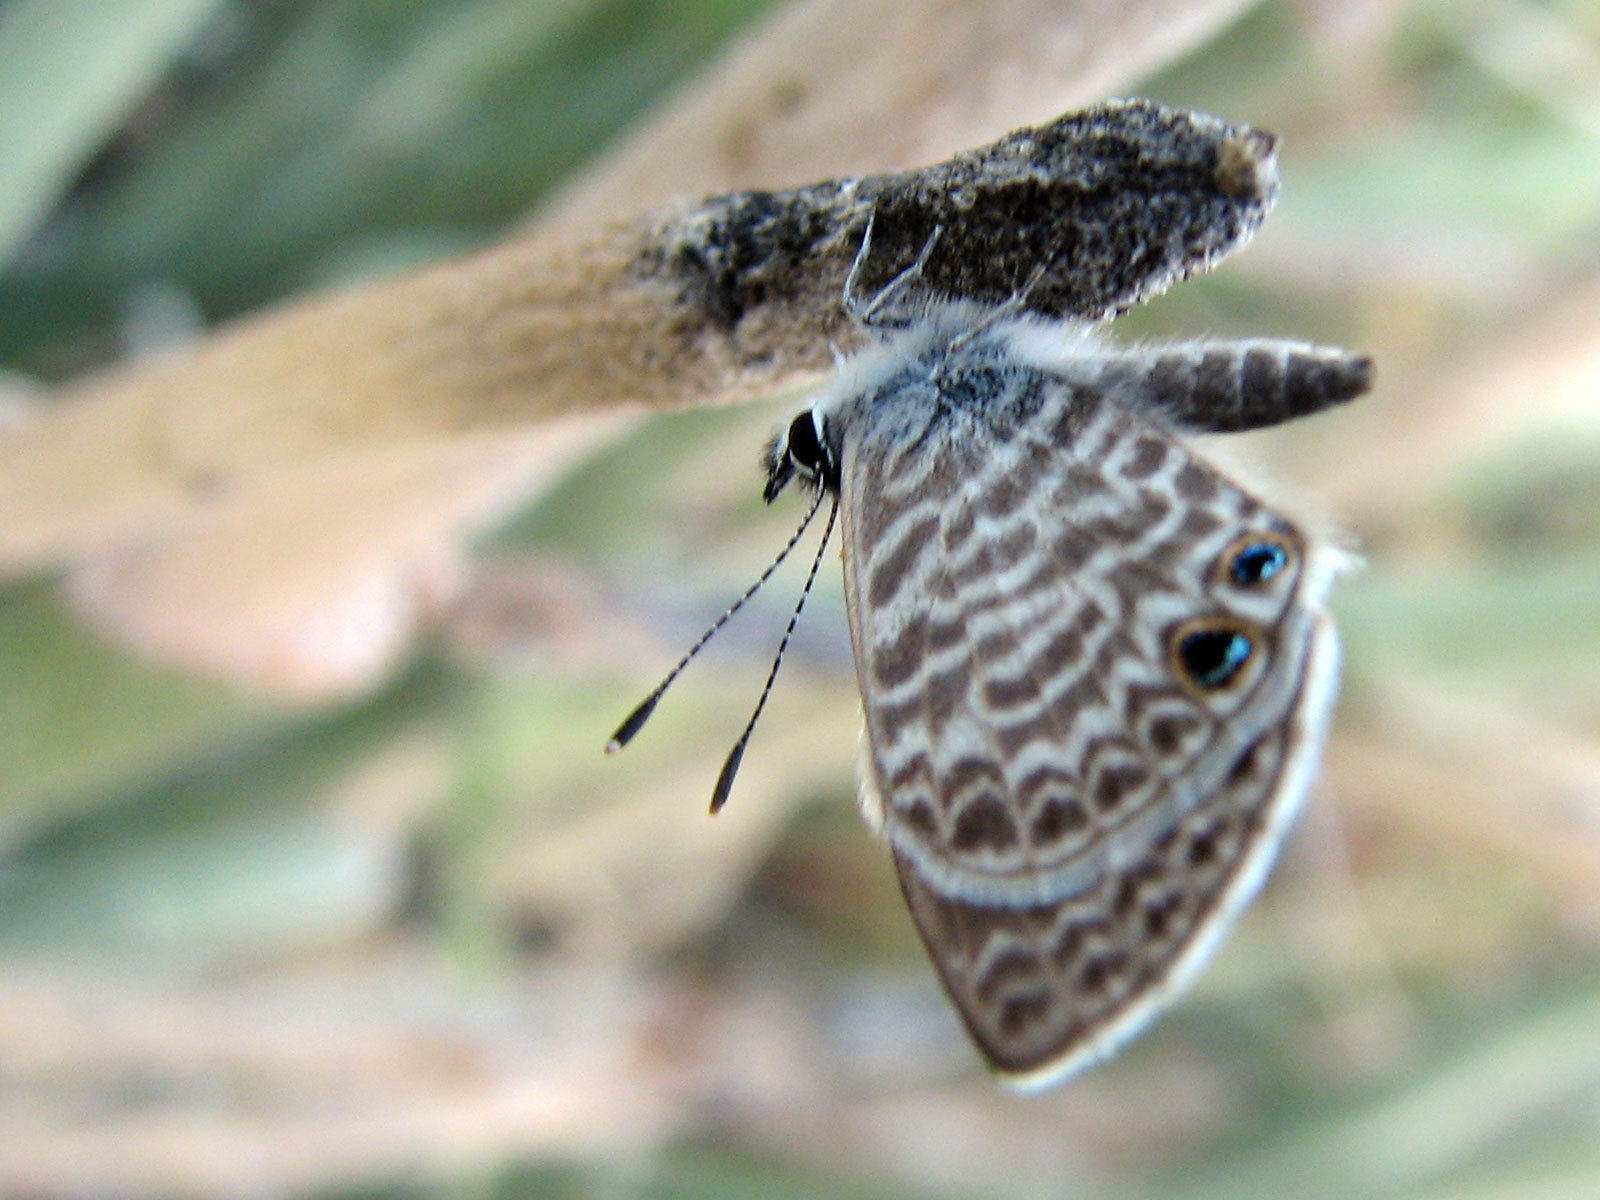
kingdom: Animalia
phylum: Arthropoda
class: Insecta
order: Lepidoptera
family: Lycaenidae
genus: Leptotes
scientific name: Leptotes marina
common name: Marine blue
